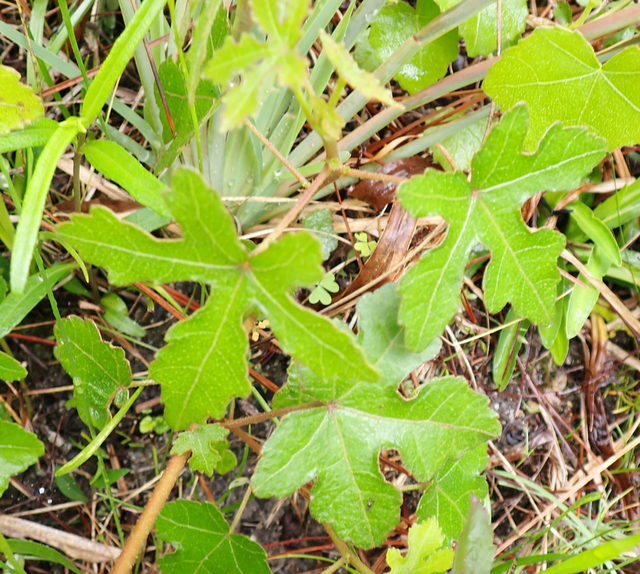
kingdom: Plantae
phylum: Tracheophyta
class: Magnoliopsida
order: Malvales
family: Malvaceae
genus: Hibiscus
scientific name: Hibiscus aculeatus
